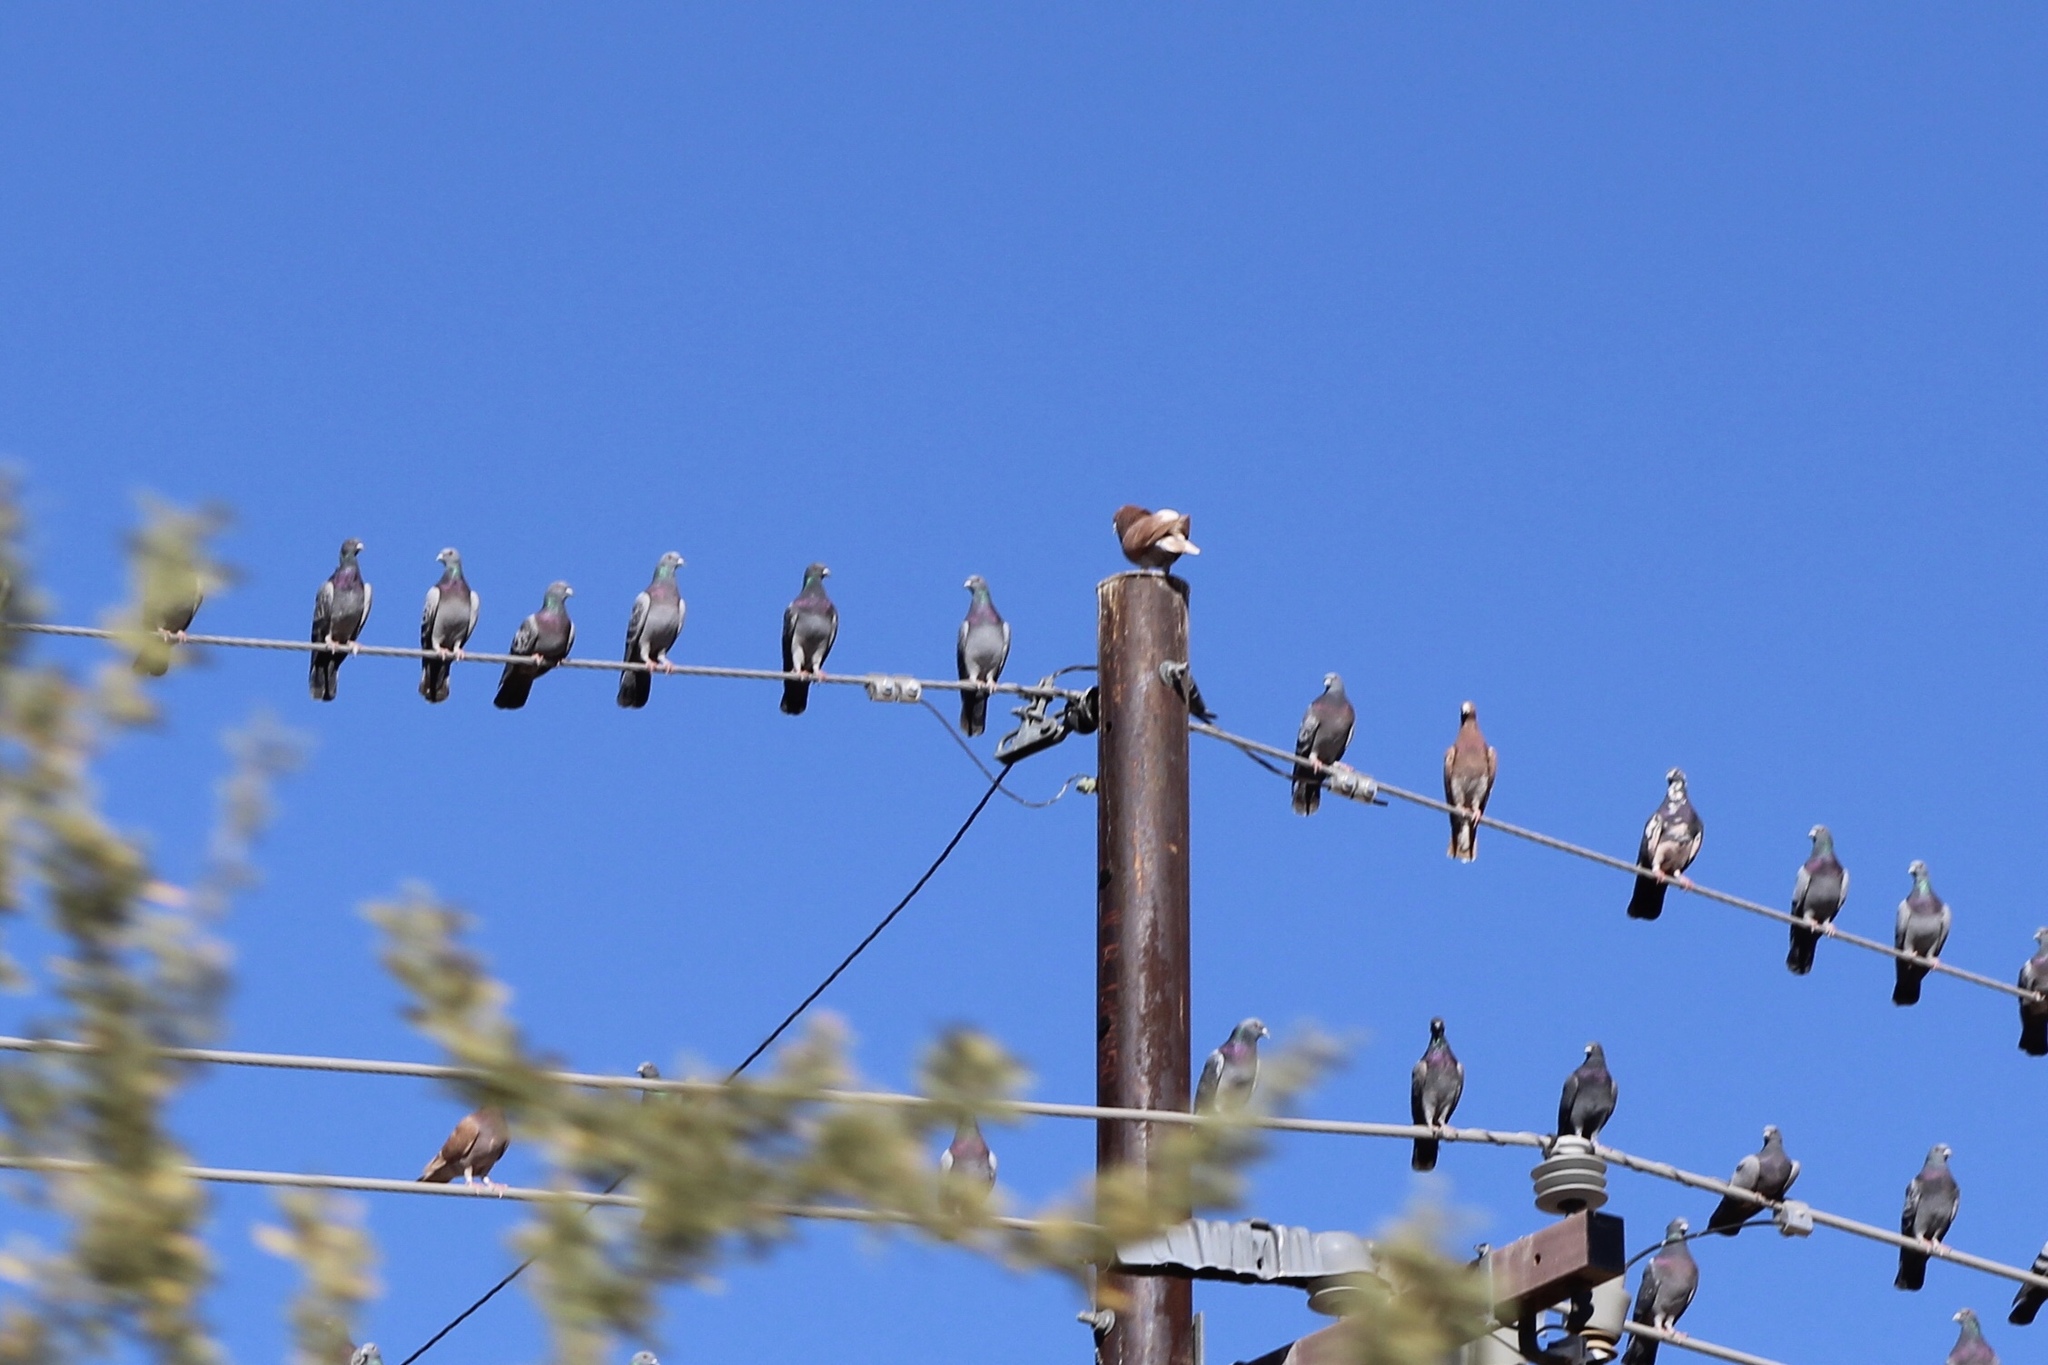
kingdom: Animalia
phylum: Chordata
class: Aves
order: Columbiformes
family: Columbidae
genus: Columba
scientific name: Columba livia
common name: Rock pigeon
